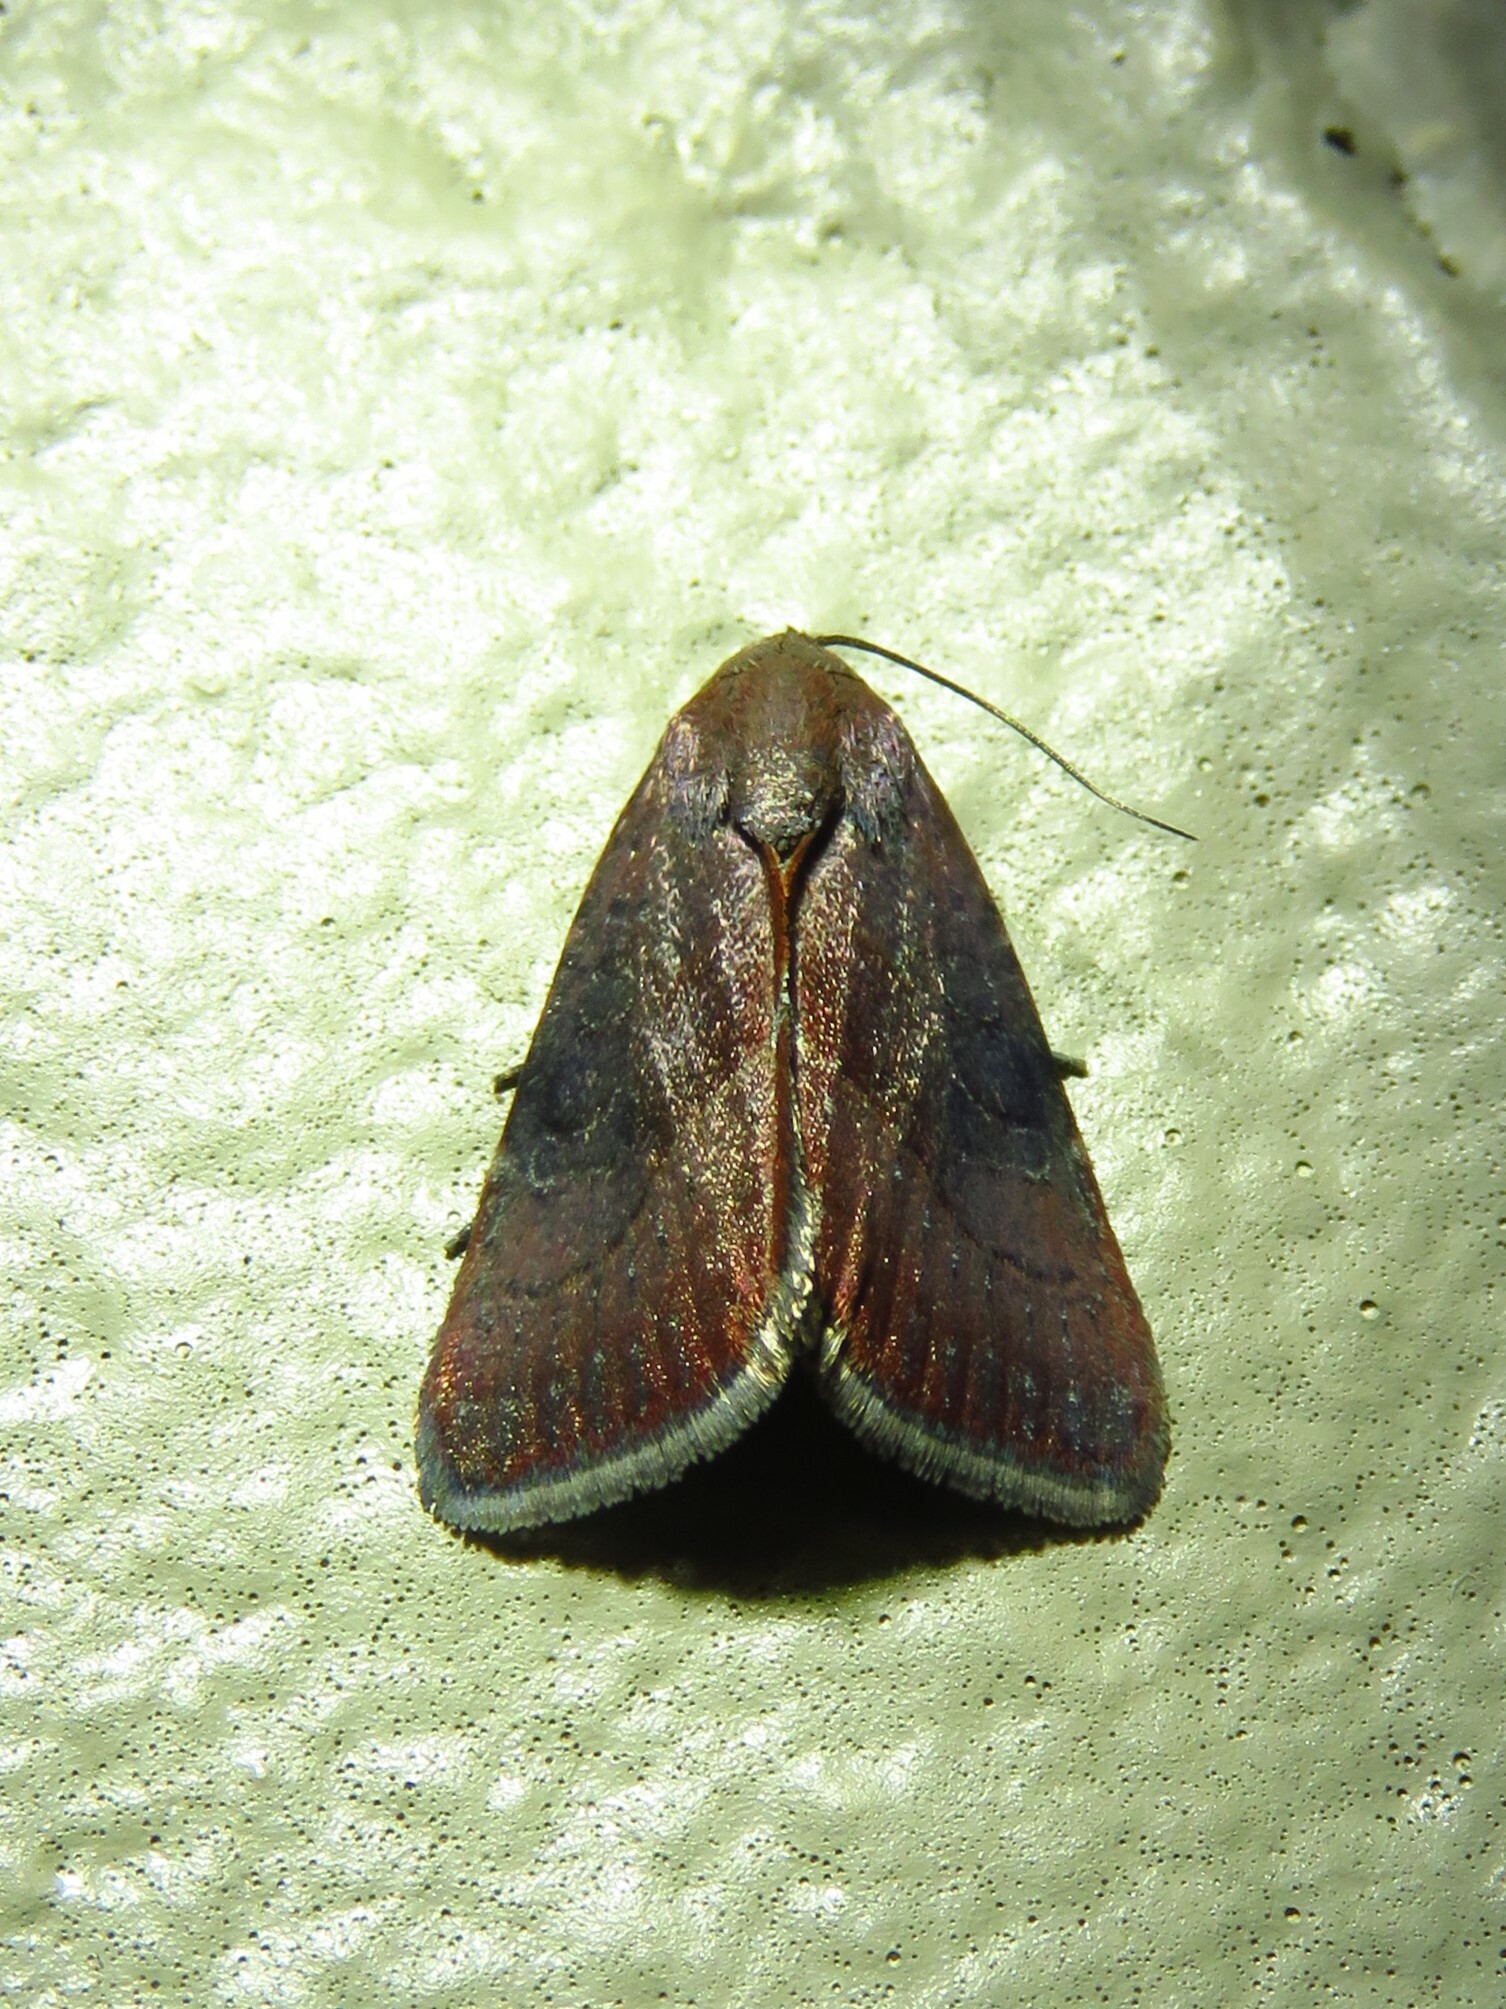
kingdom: Animalia
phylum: Arthropoda
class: Insecta
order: Lepidoptera
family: Noctuidae
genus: Galgula
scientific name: Galgula partita
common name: Wedgeling
